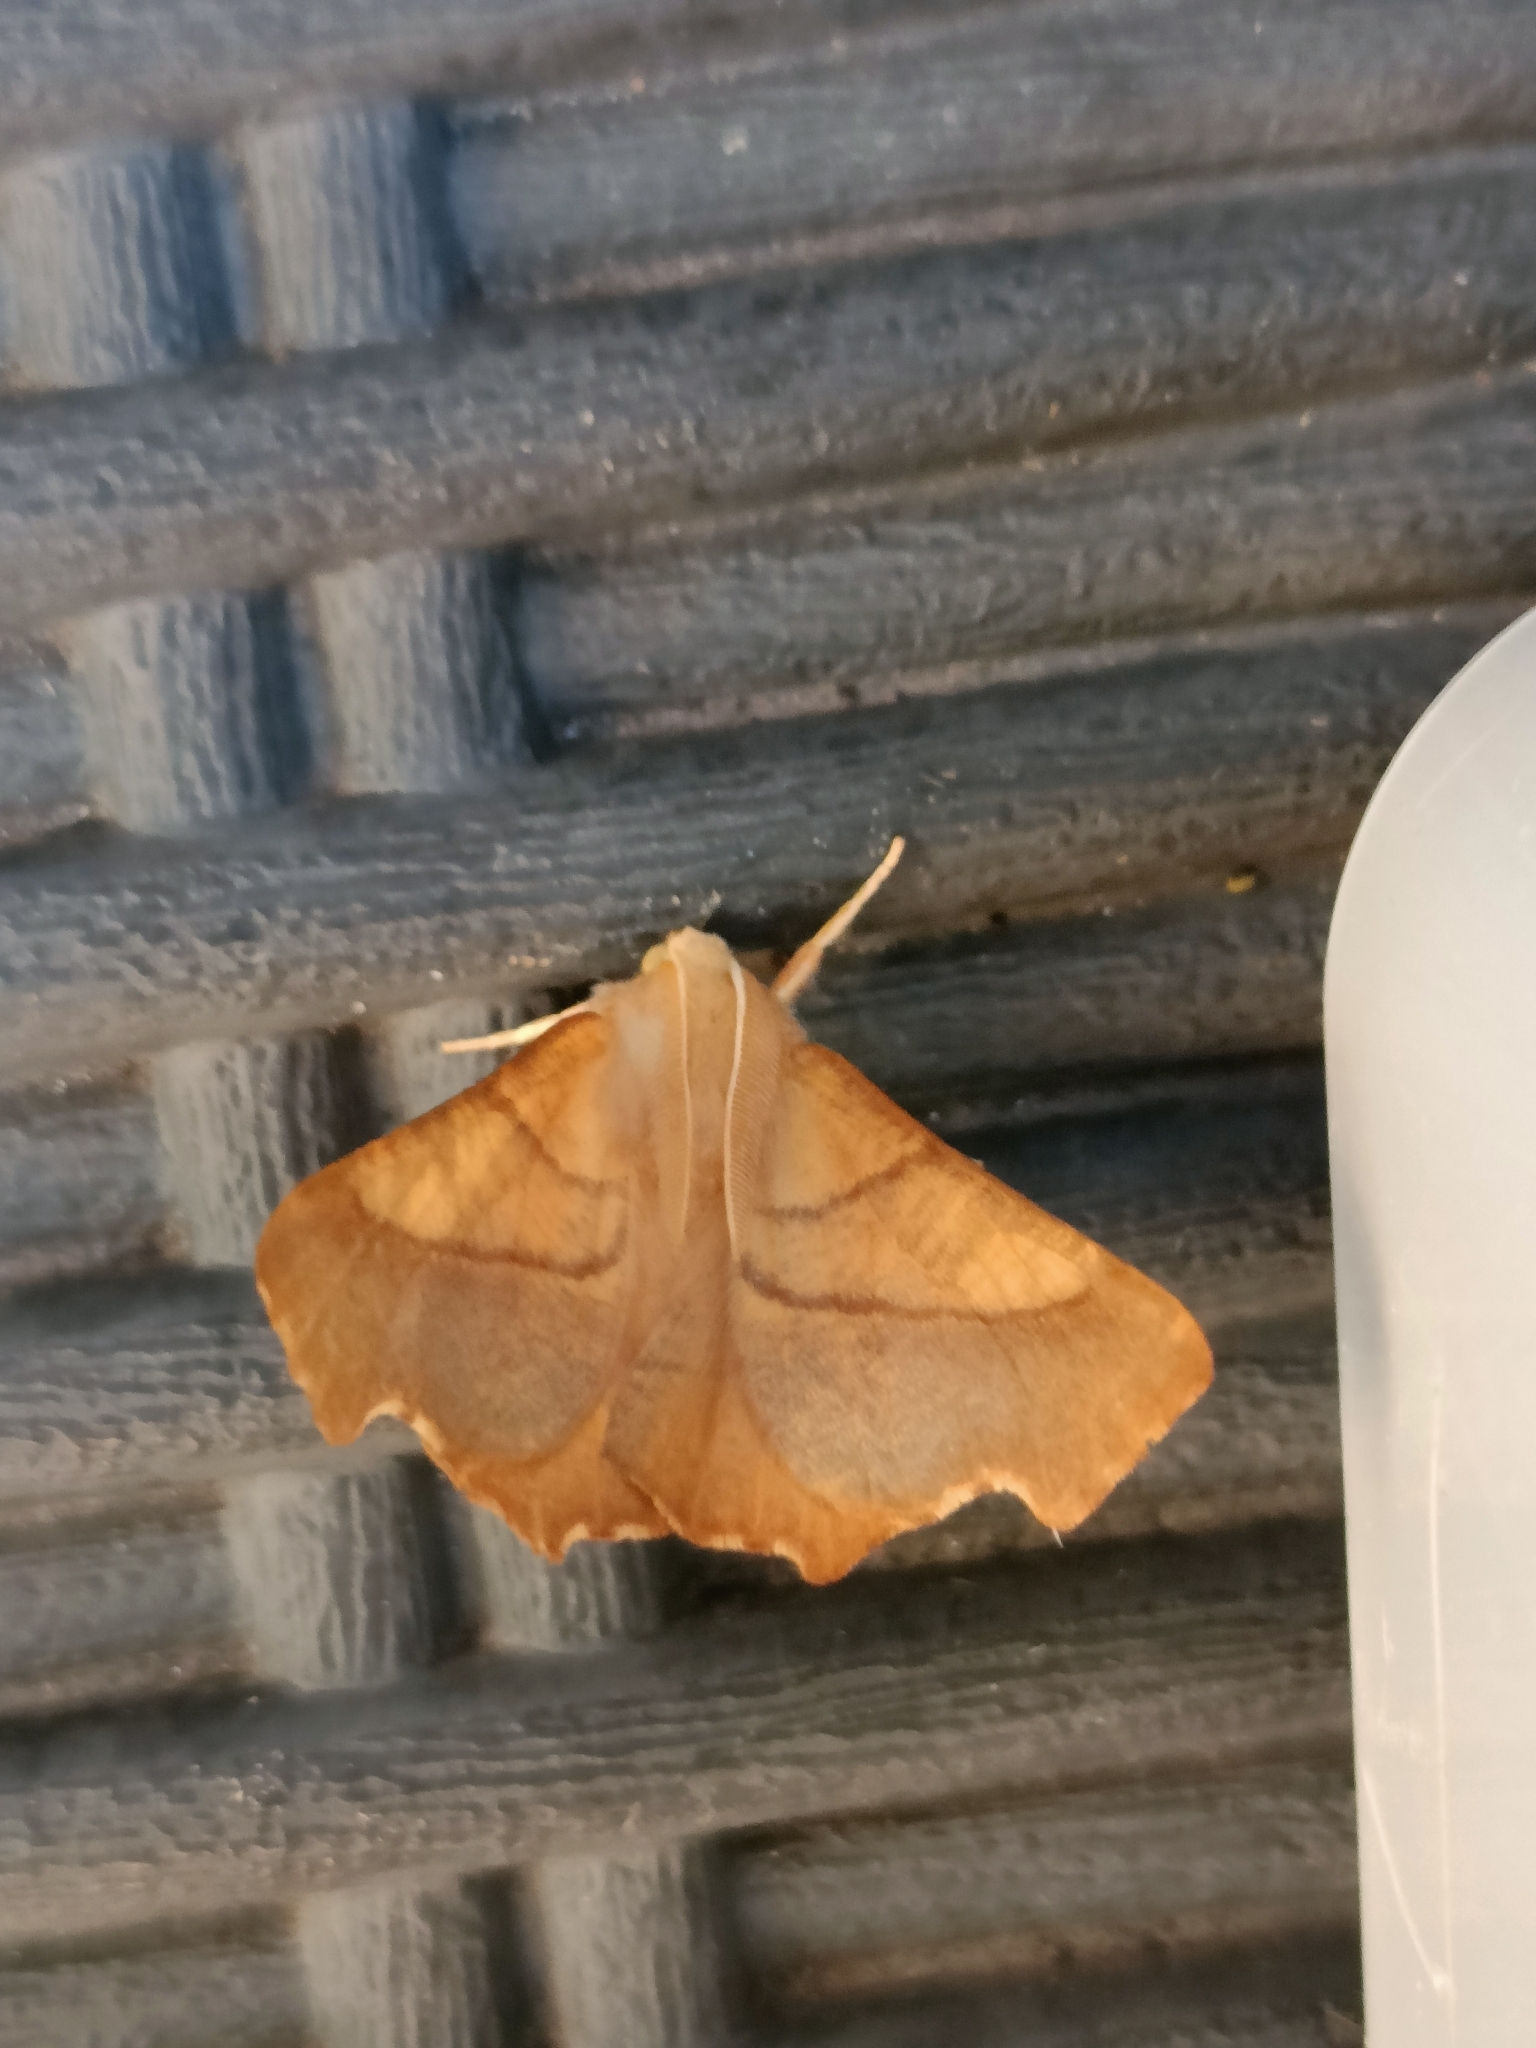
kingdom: Animalia
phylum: Arthropoda
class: Insecta
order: Lepidoptera
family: Geometridae
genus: Ennomos
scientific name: Ennomos fuscantaria
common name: Dusky thorn
